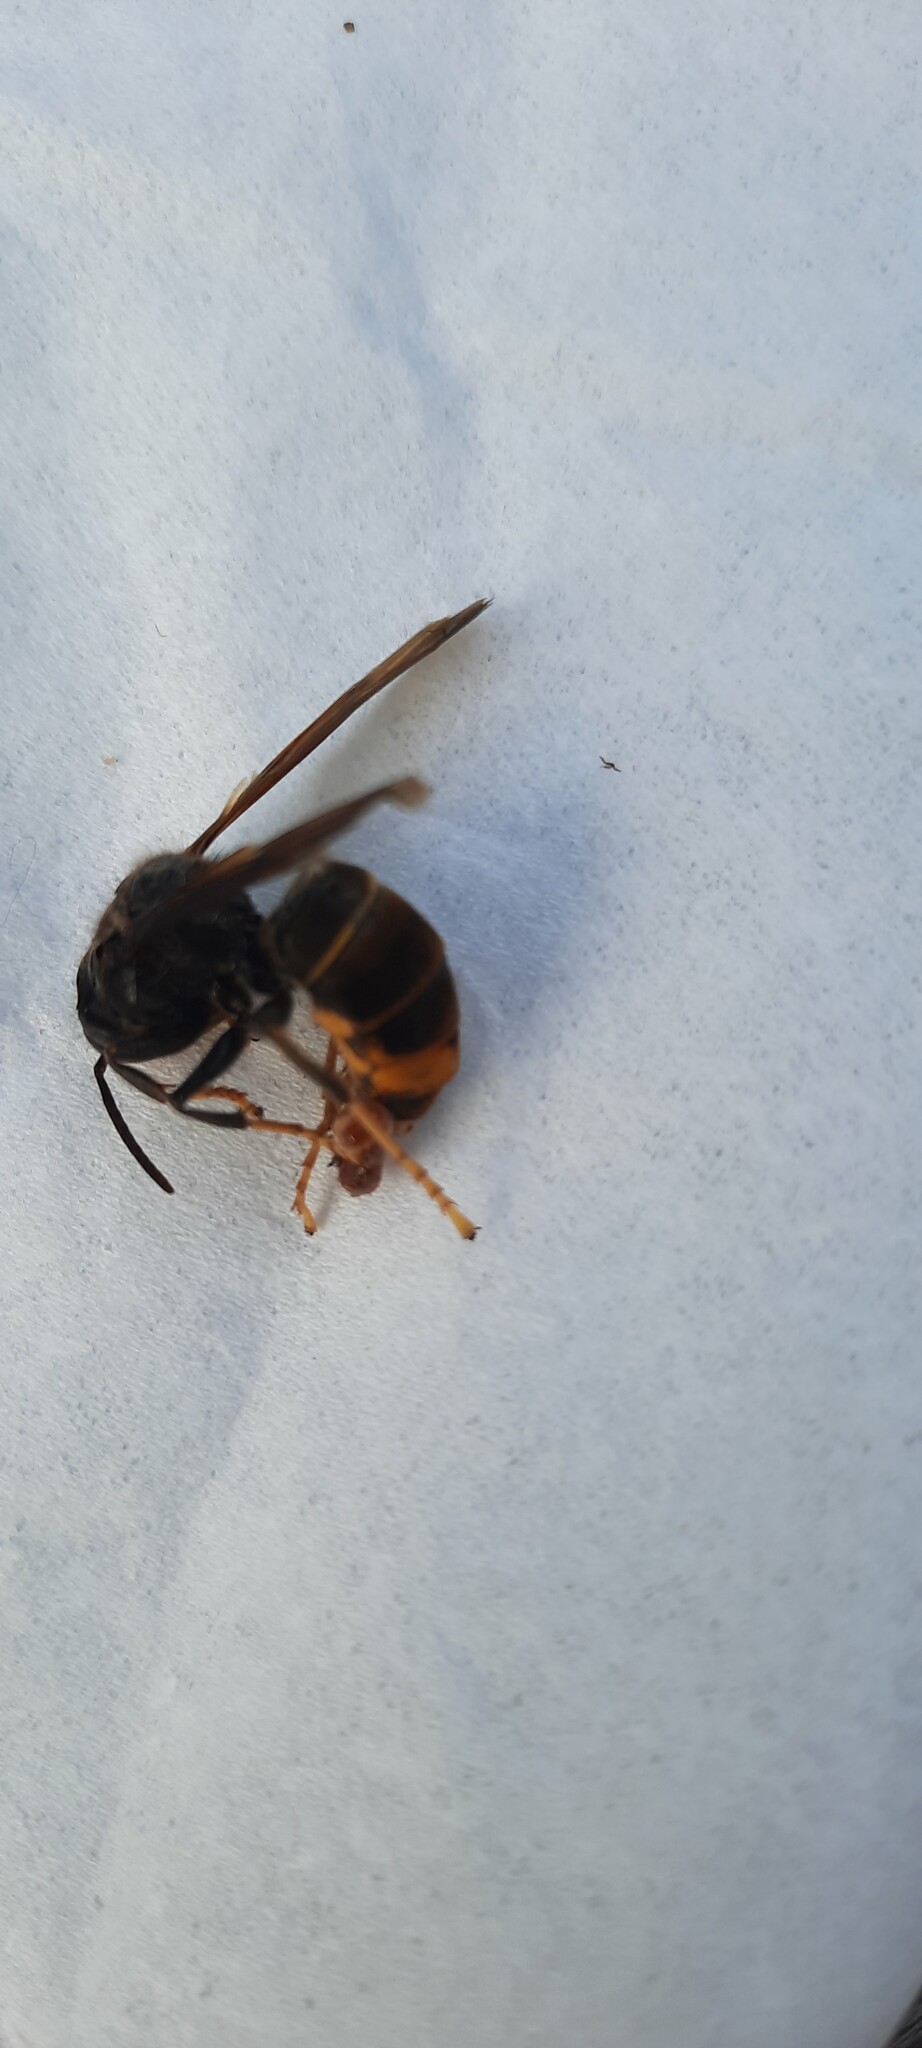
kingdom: Animalia
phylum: Arthropoda
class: Insecta
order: Hymenoptera
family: Vespidae
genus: Vespa
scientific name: Vespa velutina
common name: Asian hornet
